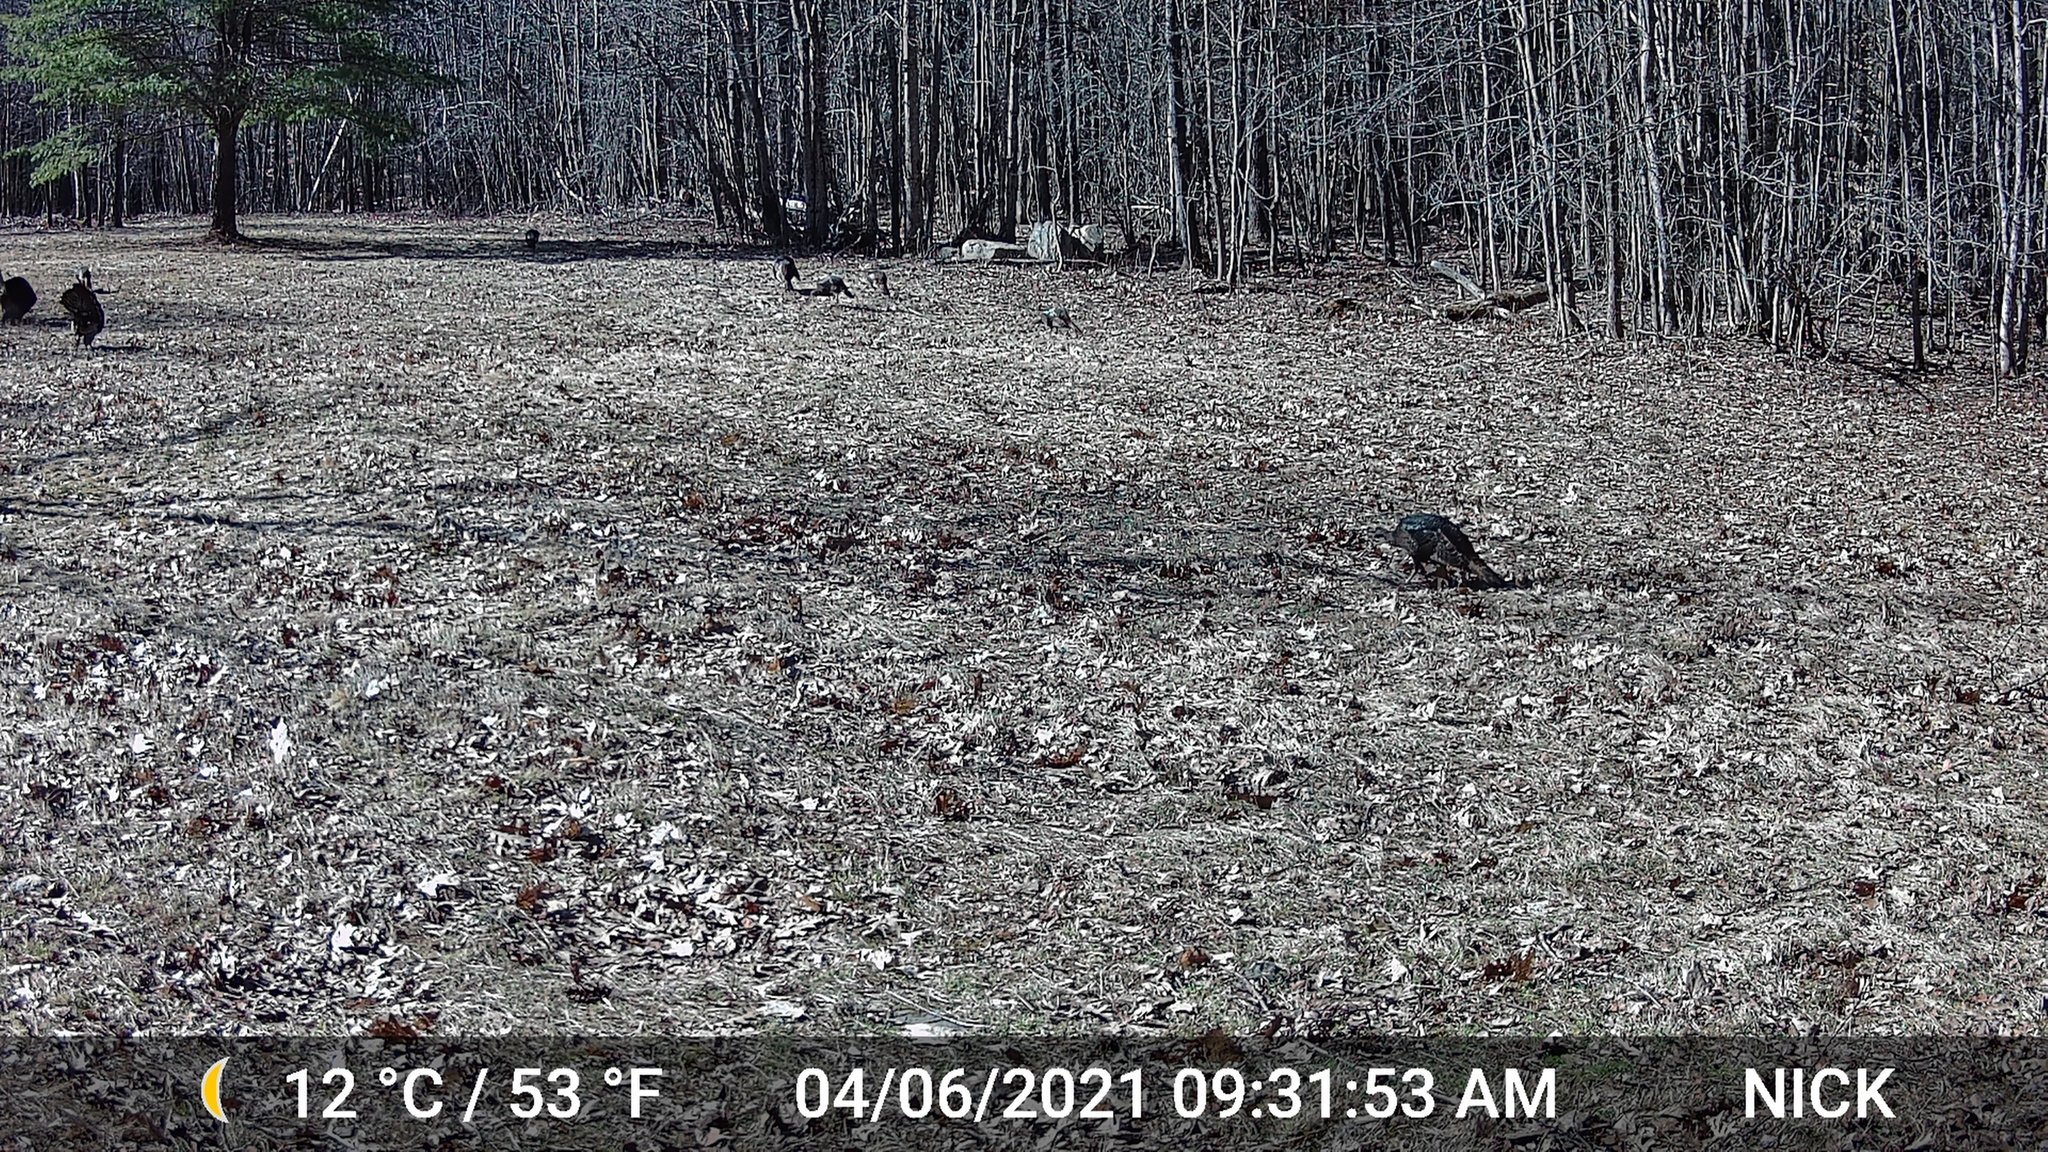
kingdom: Animalia
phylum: Chordata
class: Aves
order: Galliformes
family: Phasianidae
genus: Meleagris
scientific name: Meleagris gallopavo
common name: Wild turkey
